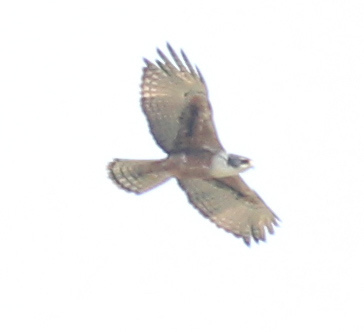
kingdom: Animalia
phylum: Chordata
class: Aves
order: Accipitriformes
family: Accipitridae
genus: Lophotriorchis
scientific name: Lophotriorchis kienerii
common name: Rufous-bellied eagle
